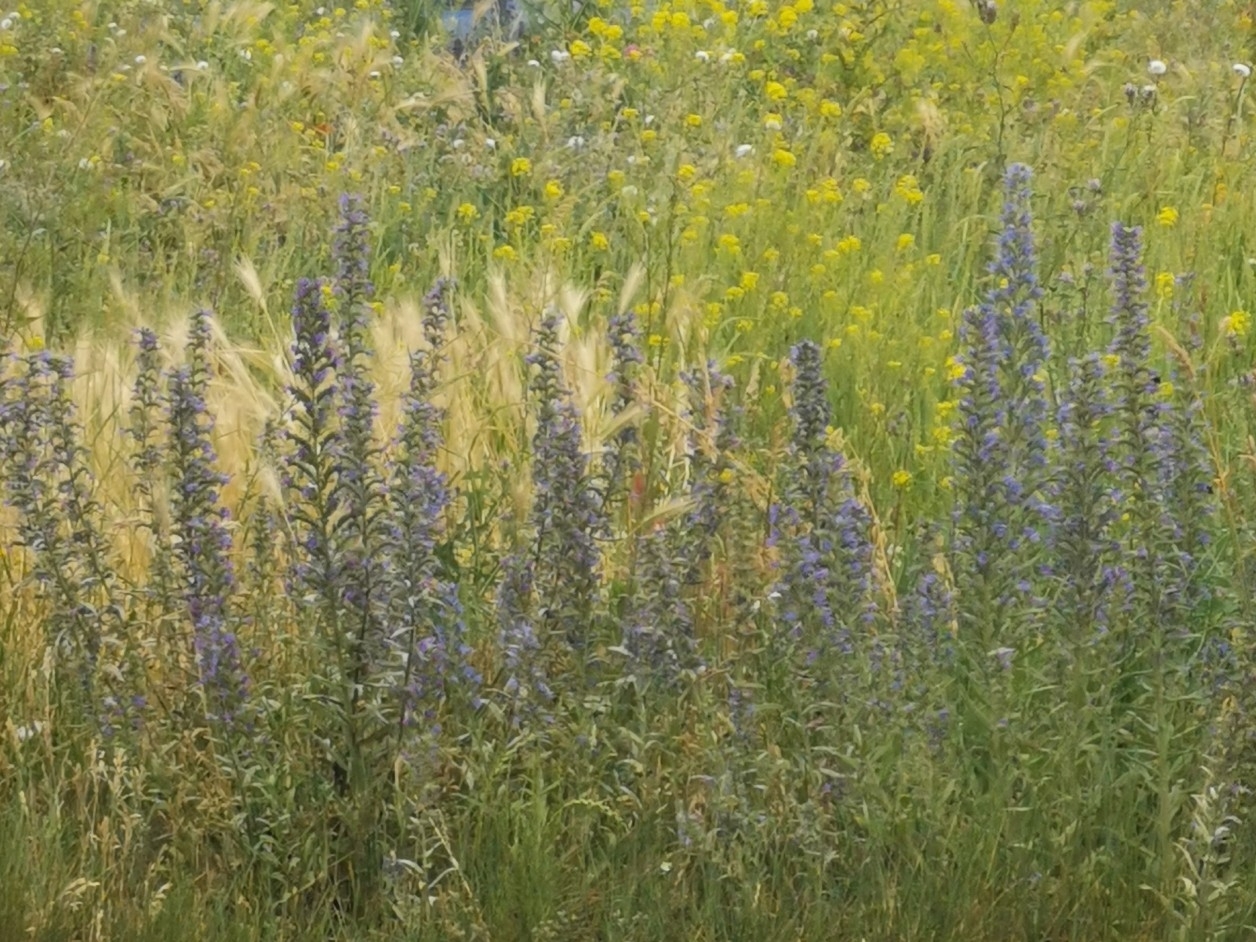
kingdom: Plantae
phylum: Tracheophyta
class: Magnoliopsida
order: Boraginales
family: Boraginaceae
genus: Echium
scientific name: Echium vulgare
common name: Common viper's bugloss
